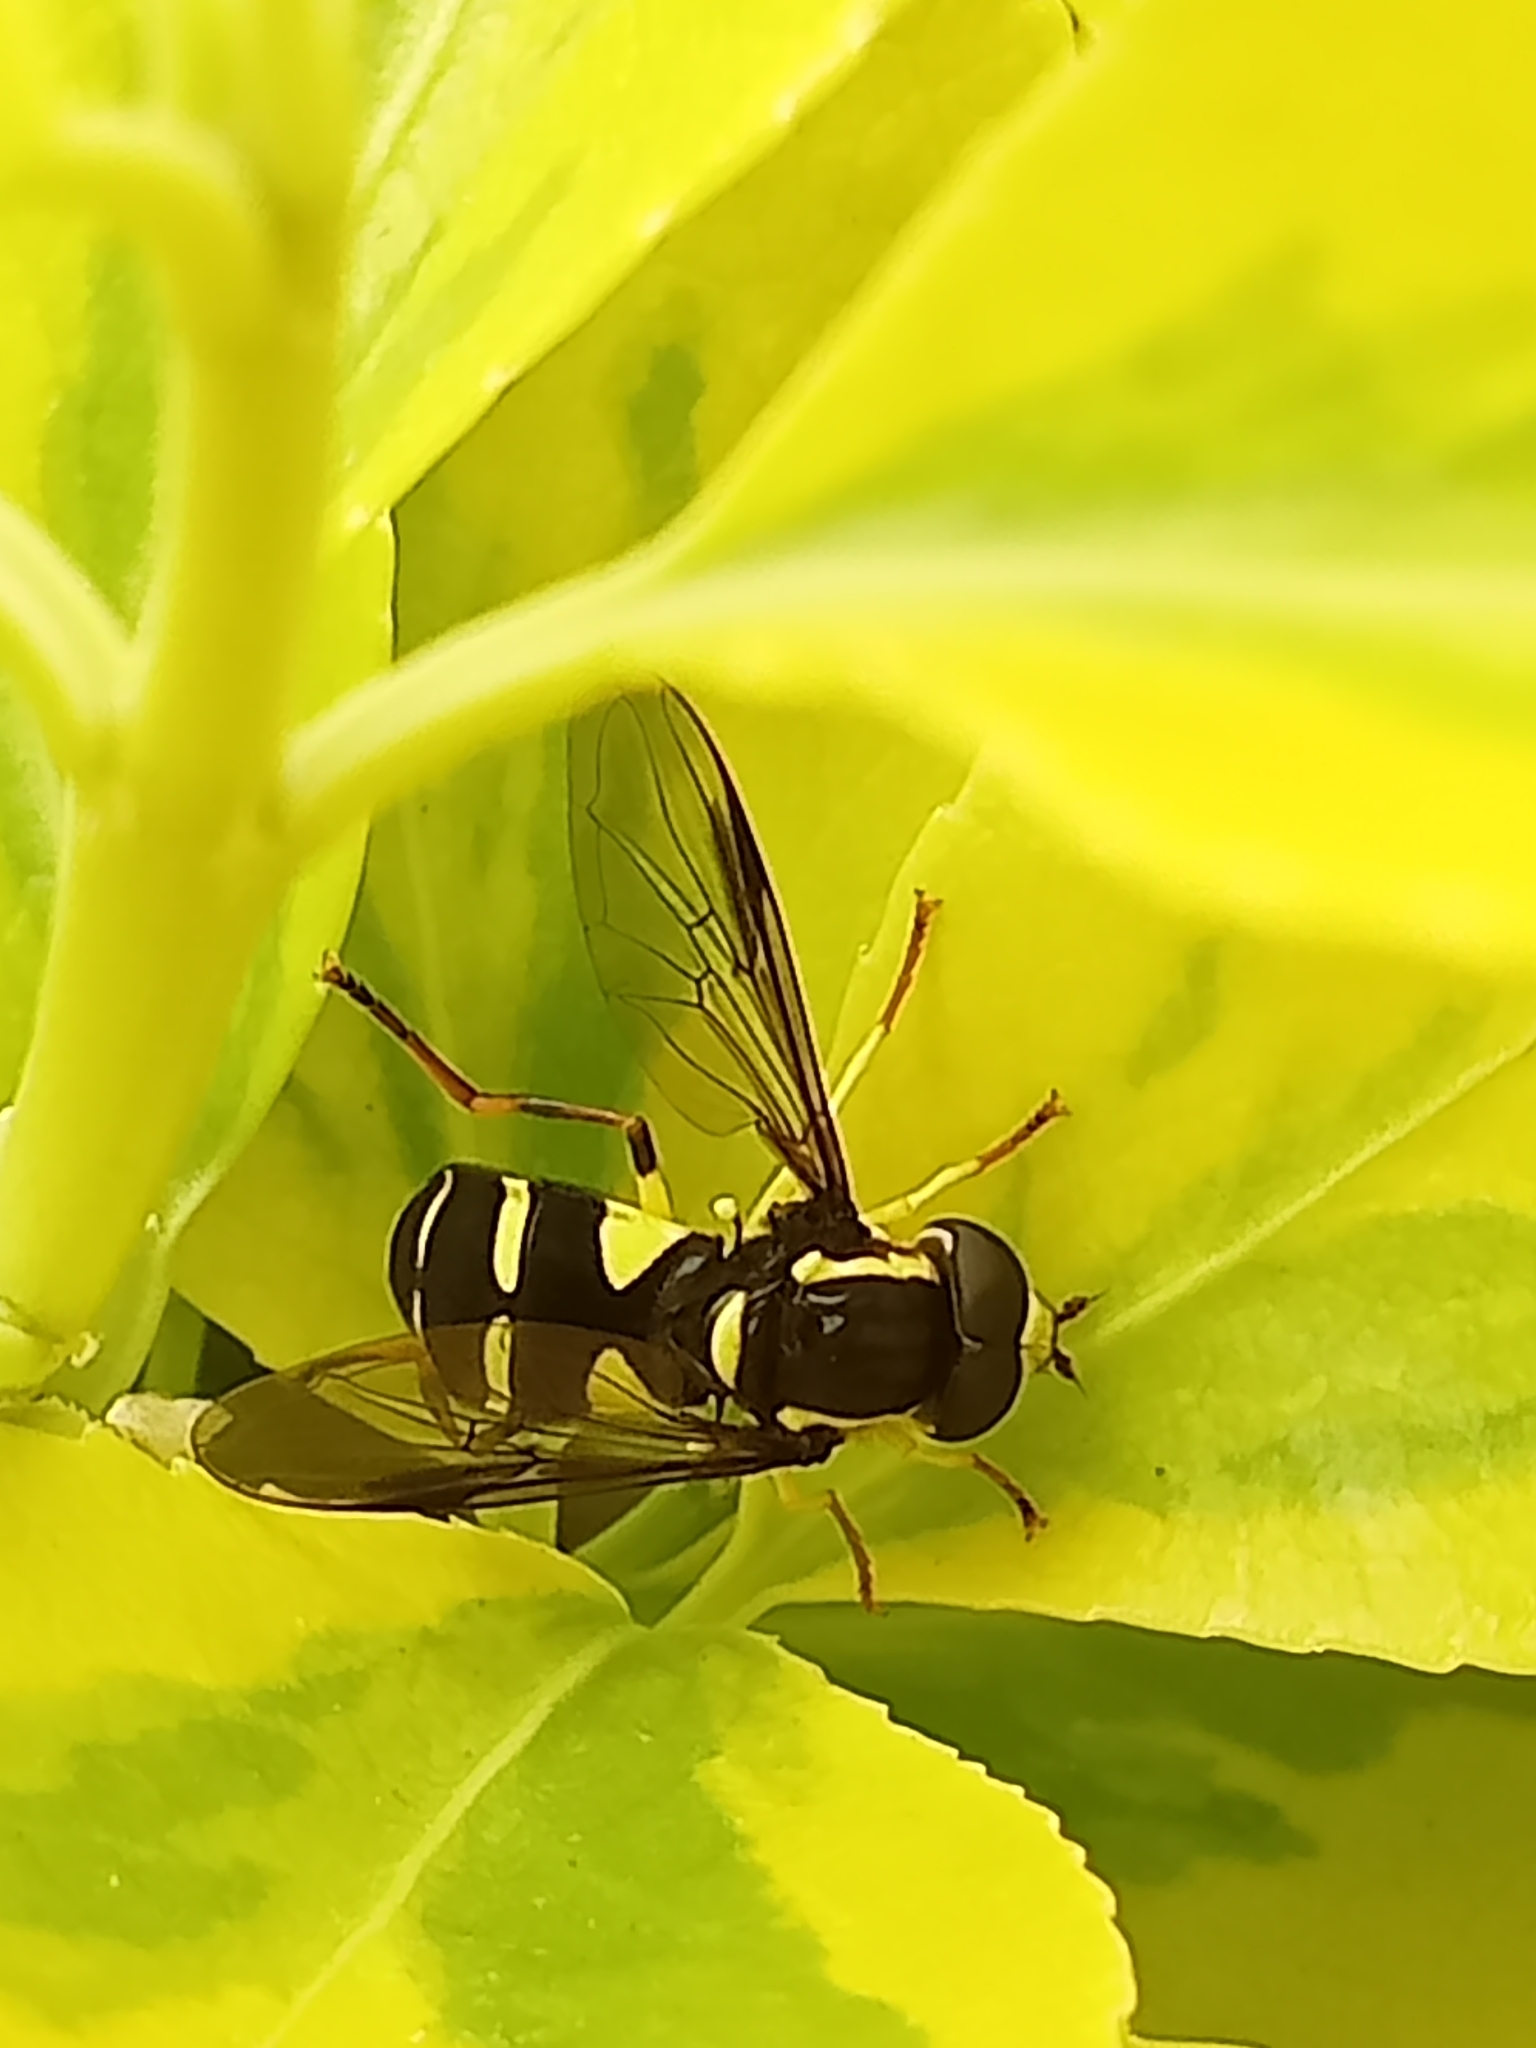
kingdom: Animalia
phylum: Arthropoda
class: Insecta
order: Diptera
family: Syrphidae
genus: Philhelius
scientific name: Philhelius pedissequum
